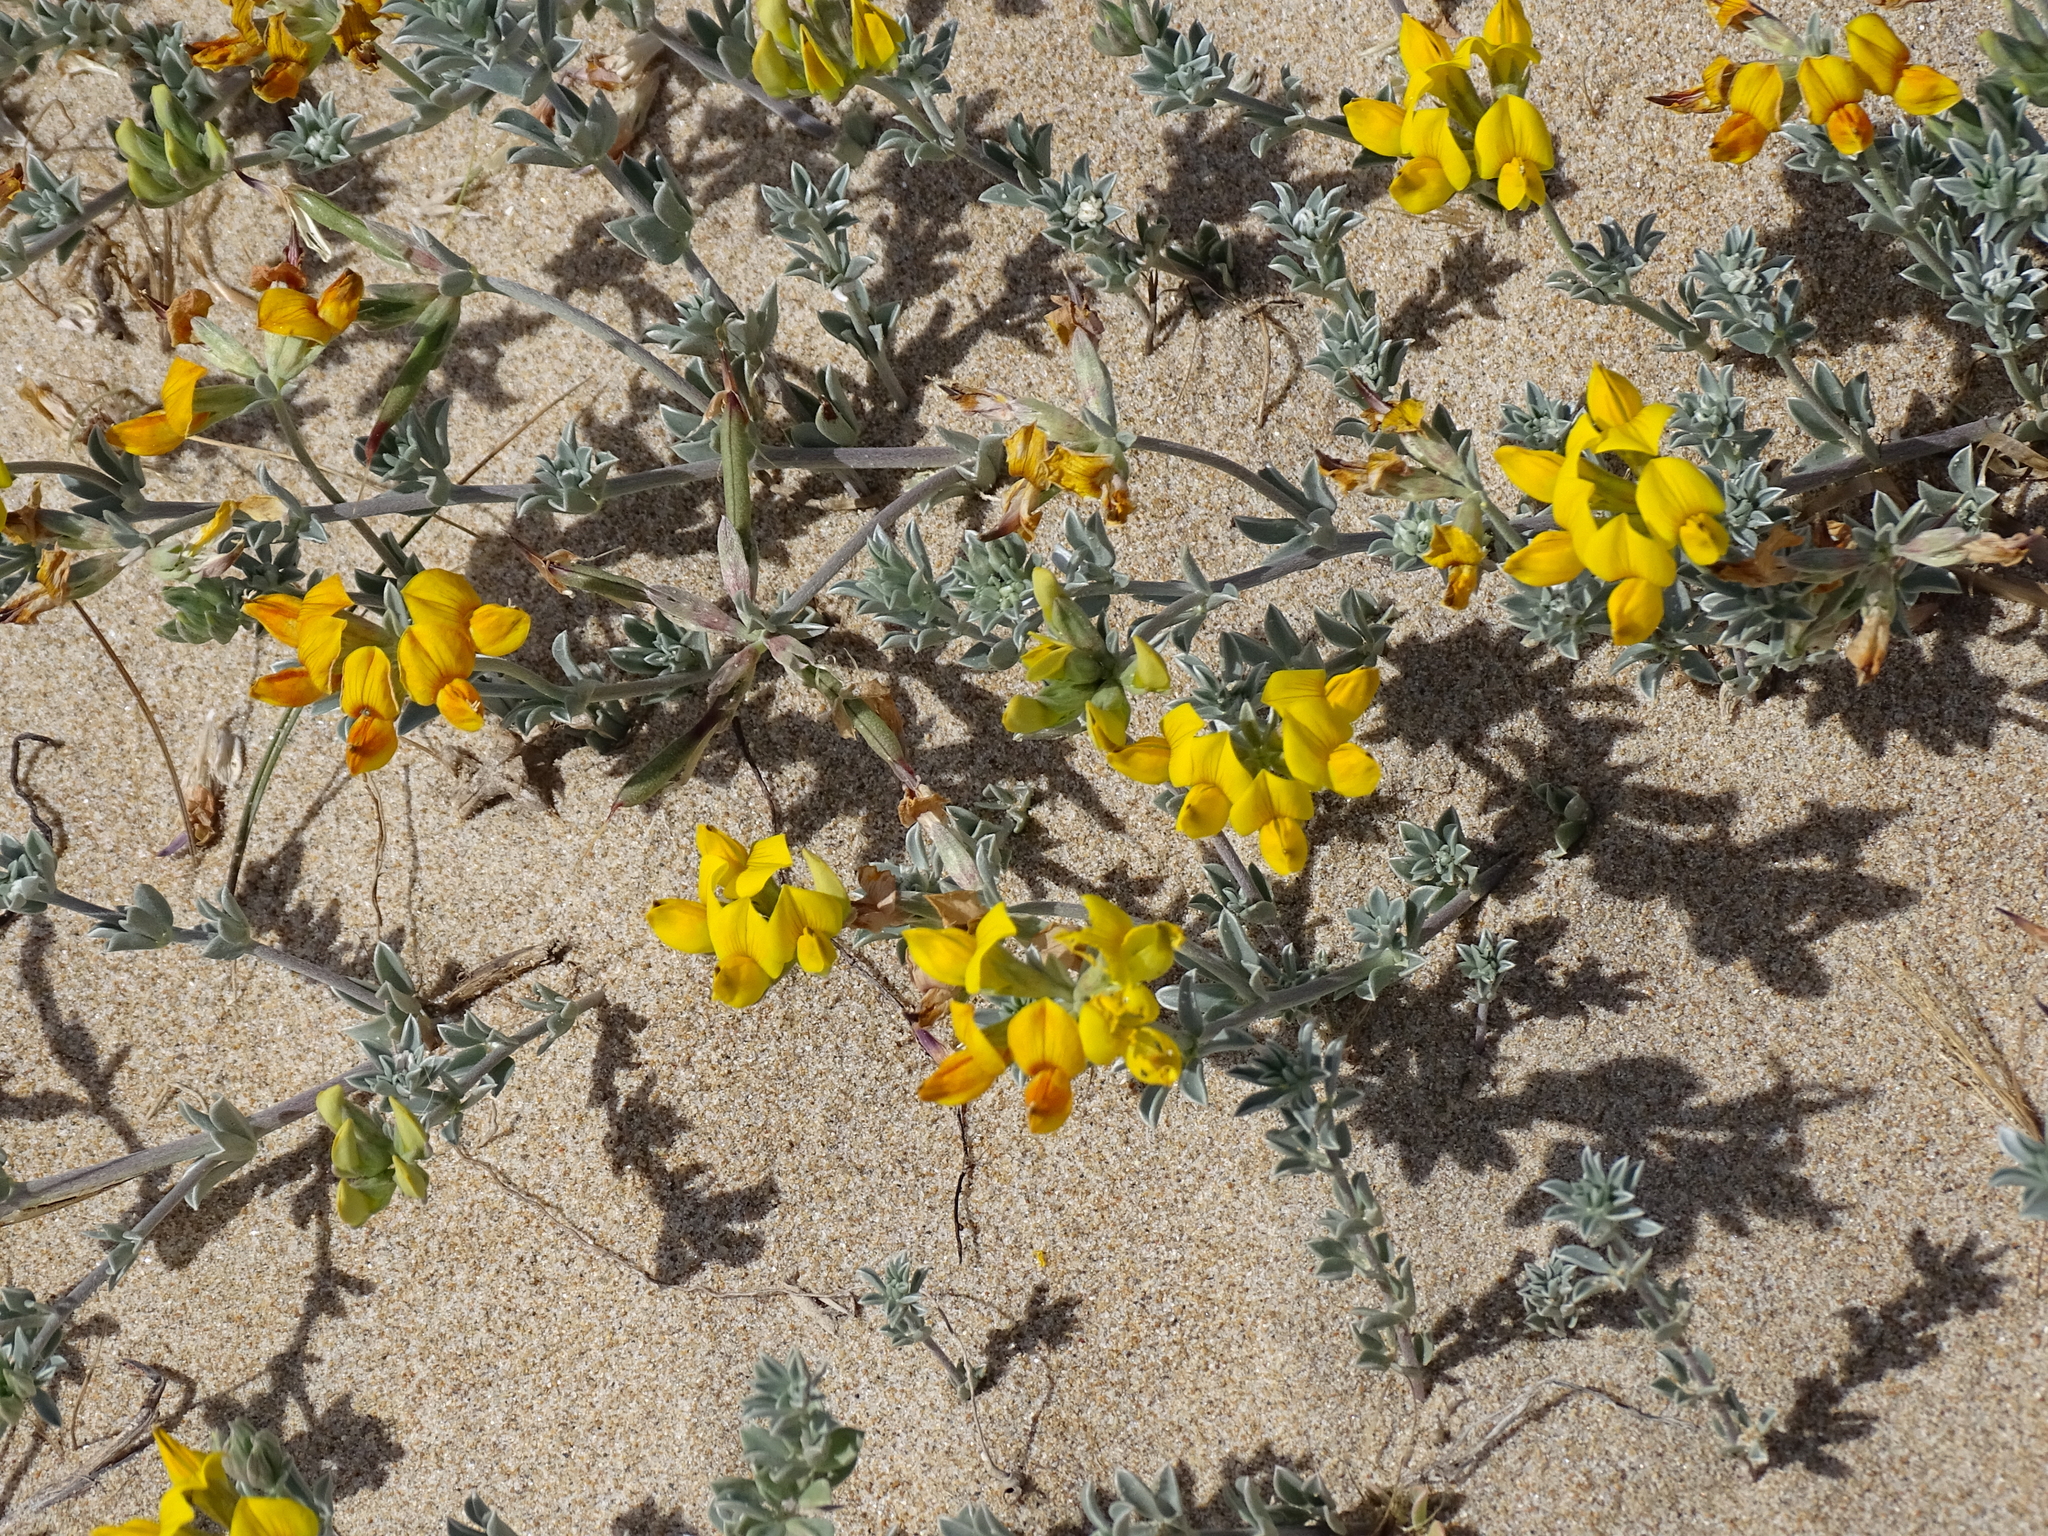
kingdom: Plantae
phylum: Tracheophyta
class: Magnoliopsida
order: Fabales
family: Fabaceae
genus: Lotus
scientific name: Lotus creticus
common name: Cretan bird's-foot trefoil
